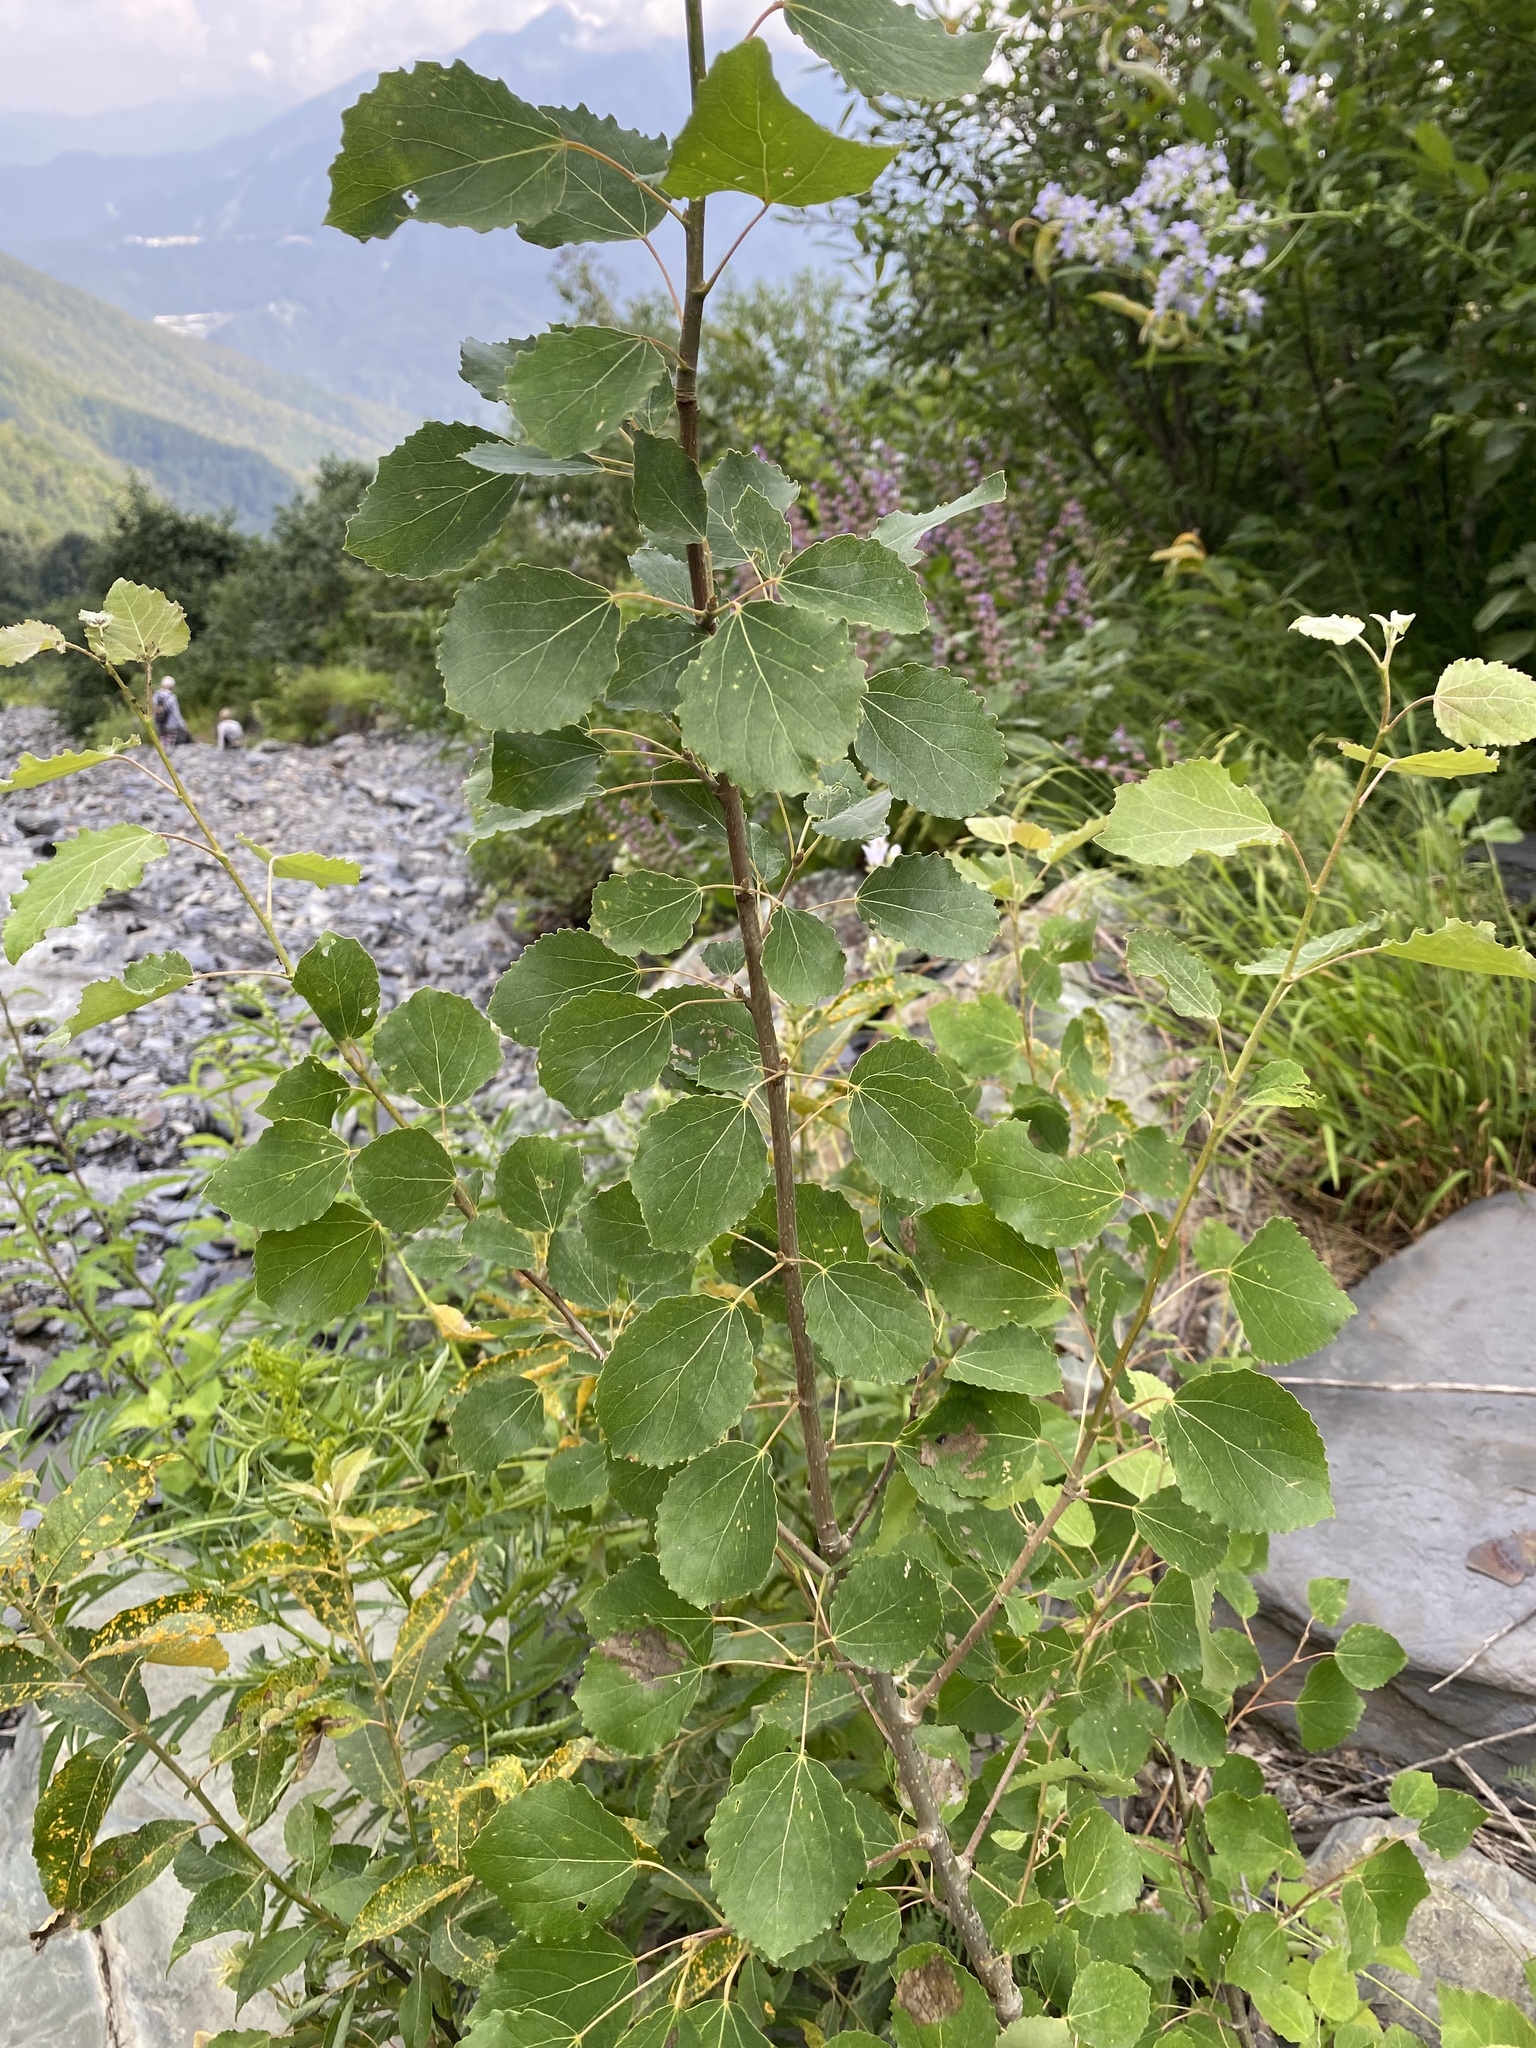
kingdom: Plantae
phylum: Tracheophyta
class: Magnoliopsida
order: Malpighiales
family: Salicaceae
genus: Populus
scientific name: Populus tremula
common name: European aspen
